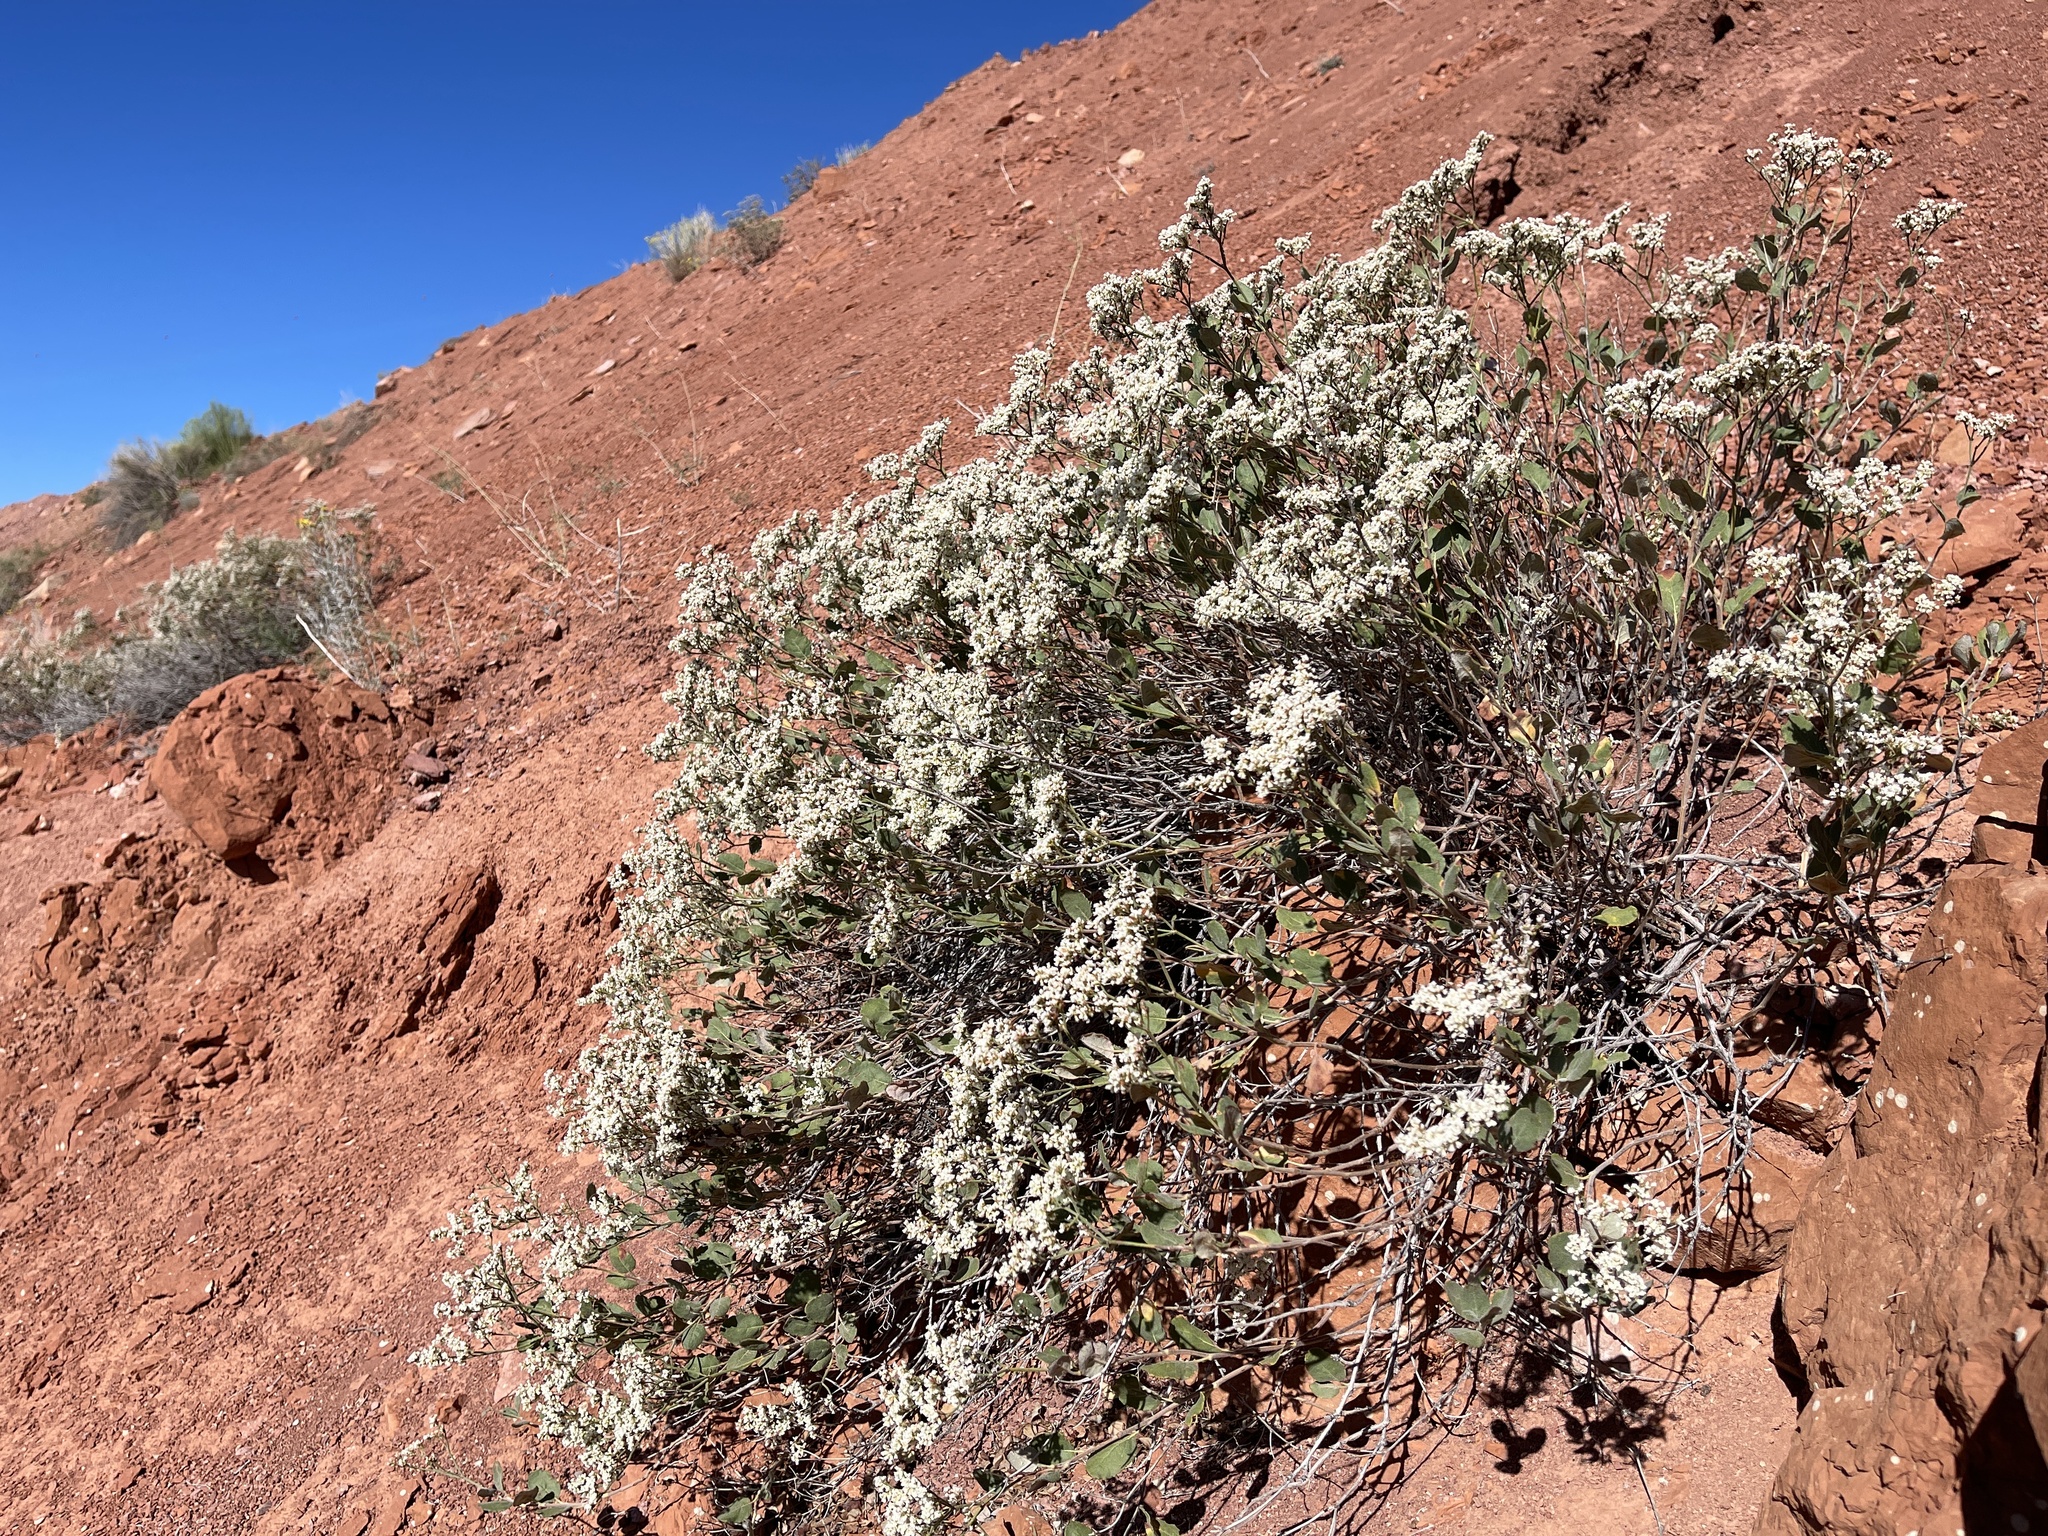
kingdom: Plantae
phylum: Tracheophyta
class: Magnoliopsida
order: Caryophyllales
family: Polygonaceae
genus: Eriogonum
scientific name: Eriogonum corymbosum
